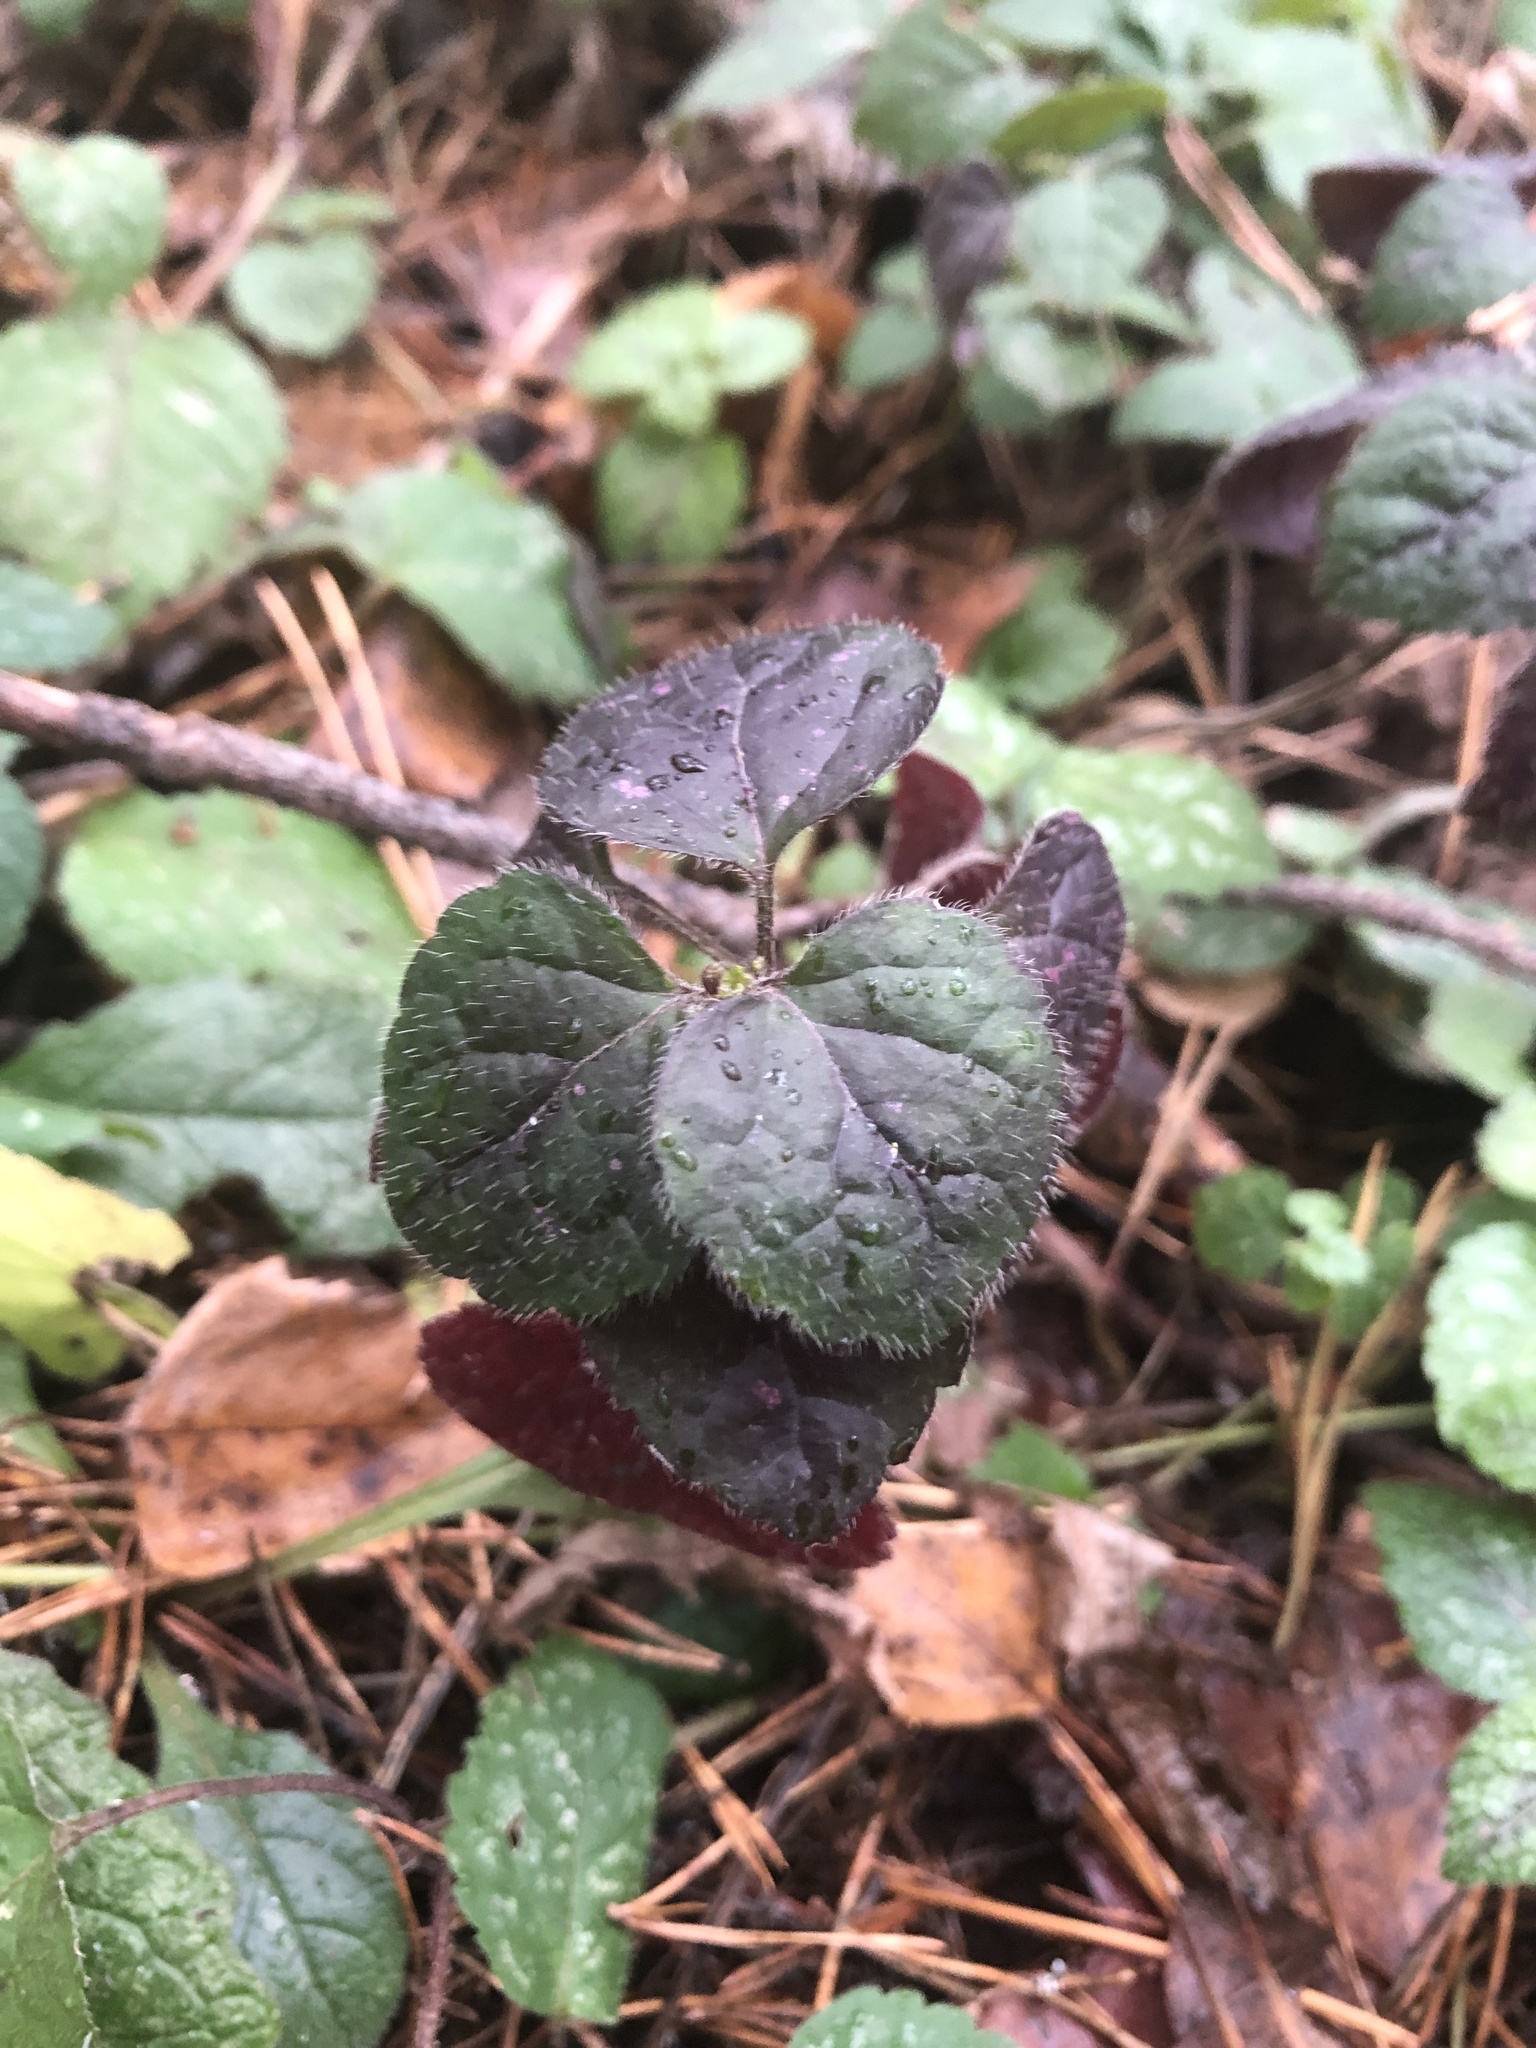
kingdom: Plantae
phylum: Tracheophyta
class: Magnoliopsida
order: Lamiales
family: Lamiaceae
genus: Lamium
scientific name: Lamium galeobdolon
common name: Yellow archangel
